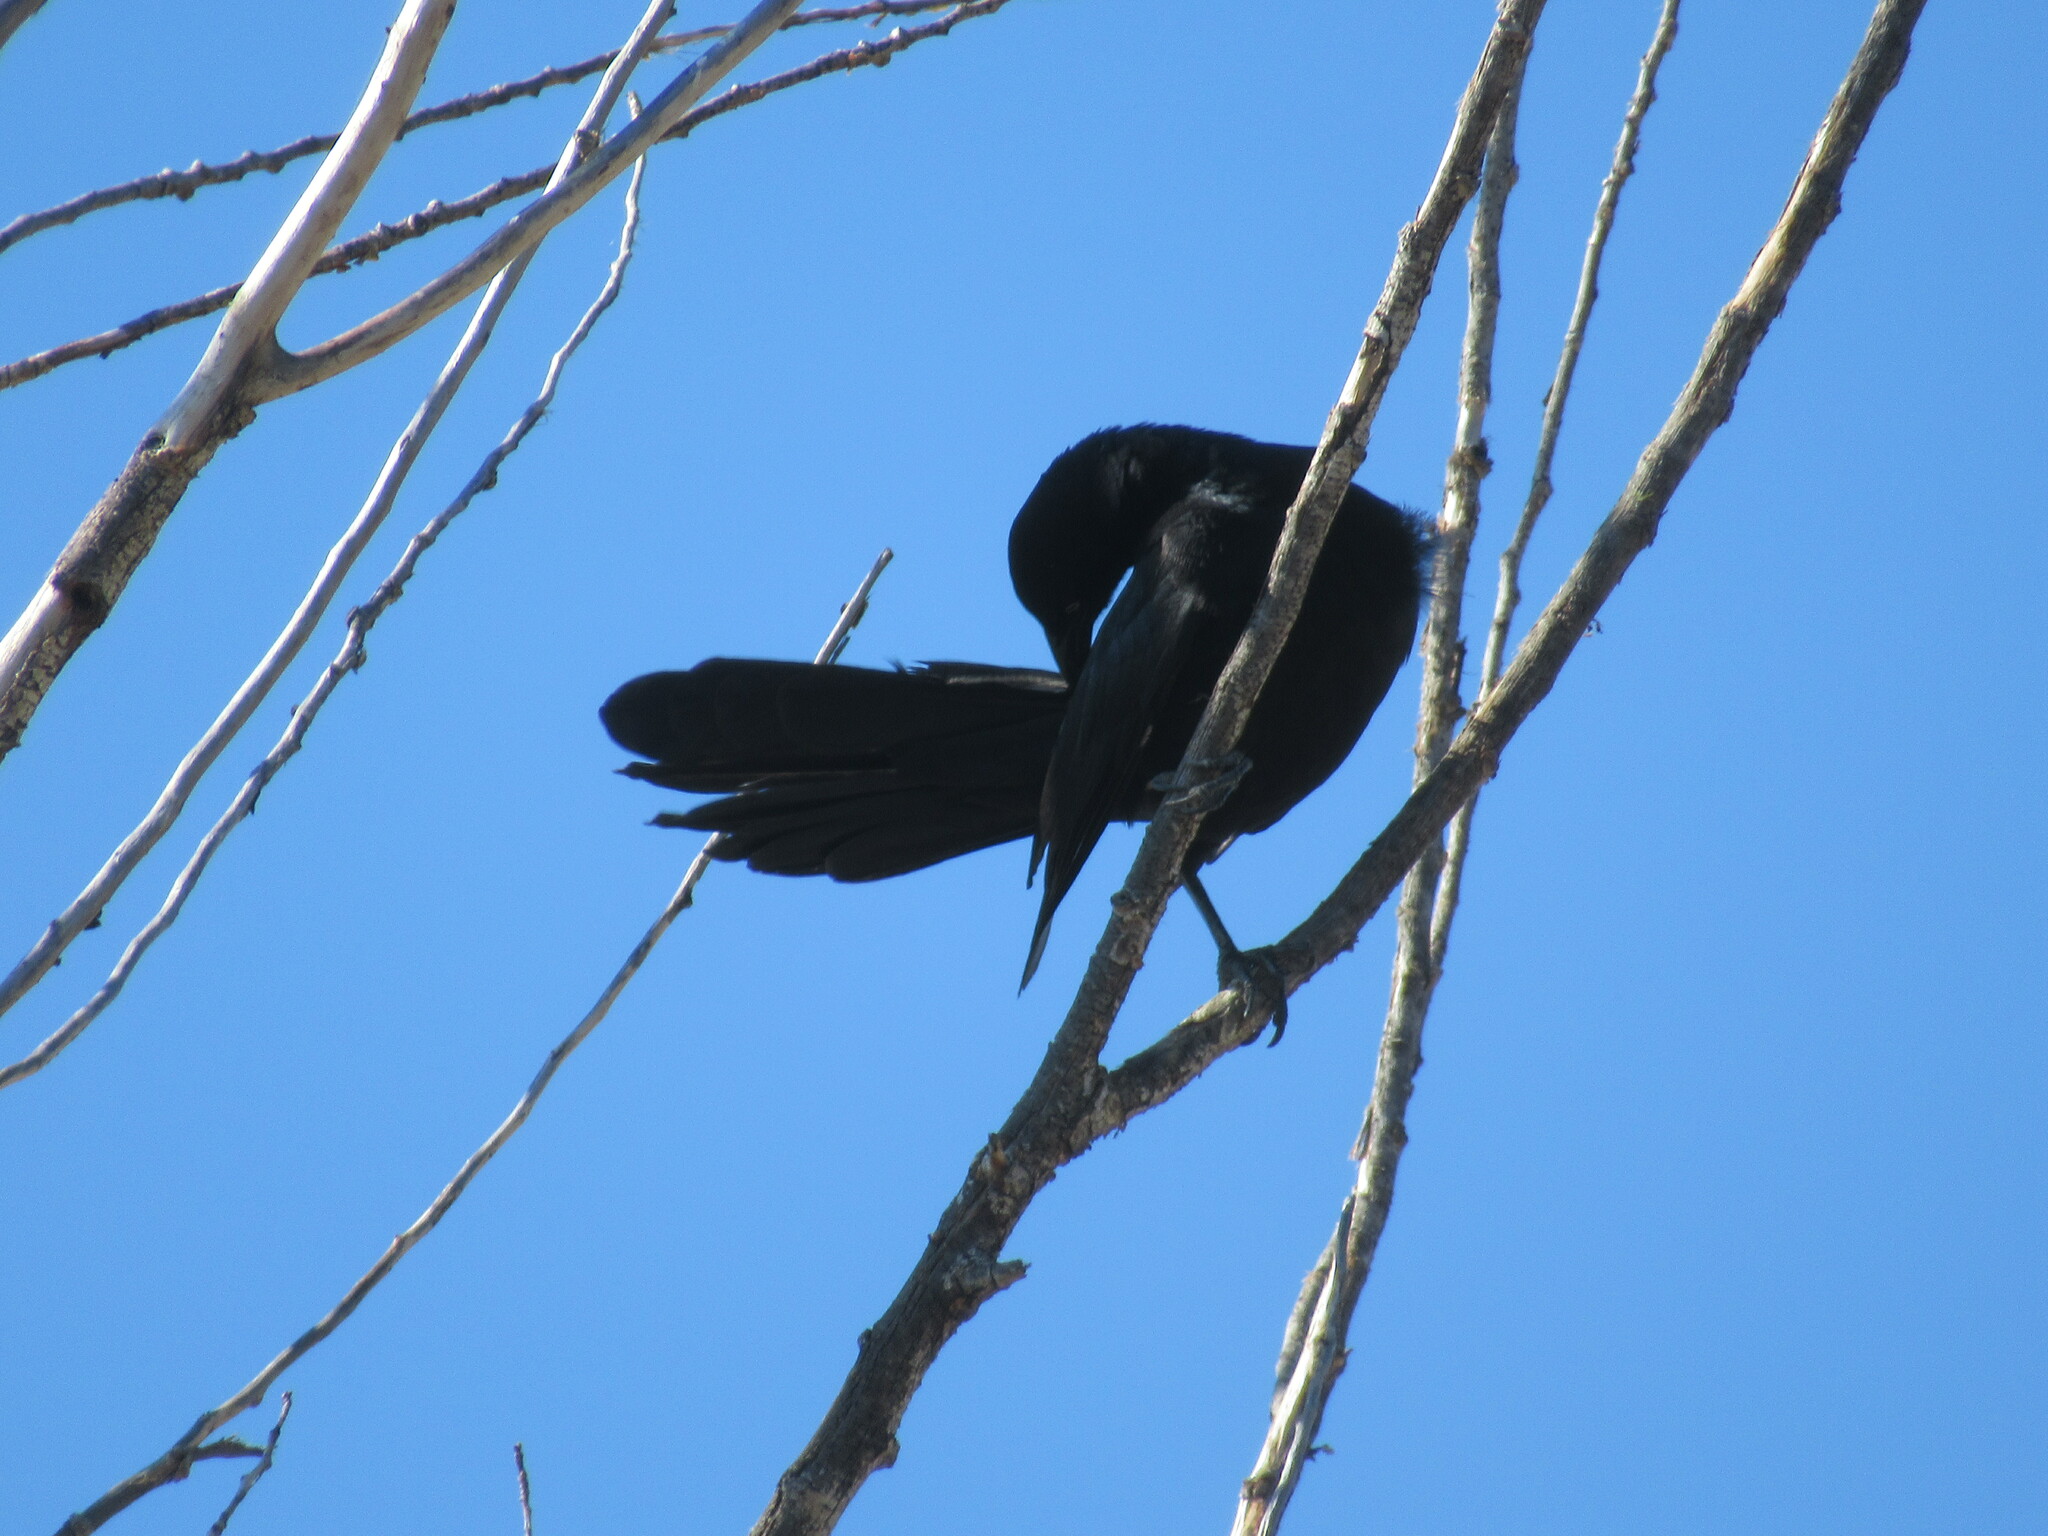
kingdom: Animalia
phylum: Chordata
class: Aves
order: Passeriformes
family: Icteridae
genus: Quiscalus
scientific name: Quiscalus mexicanus
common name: Great-tailed grackle
